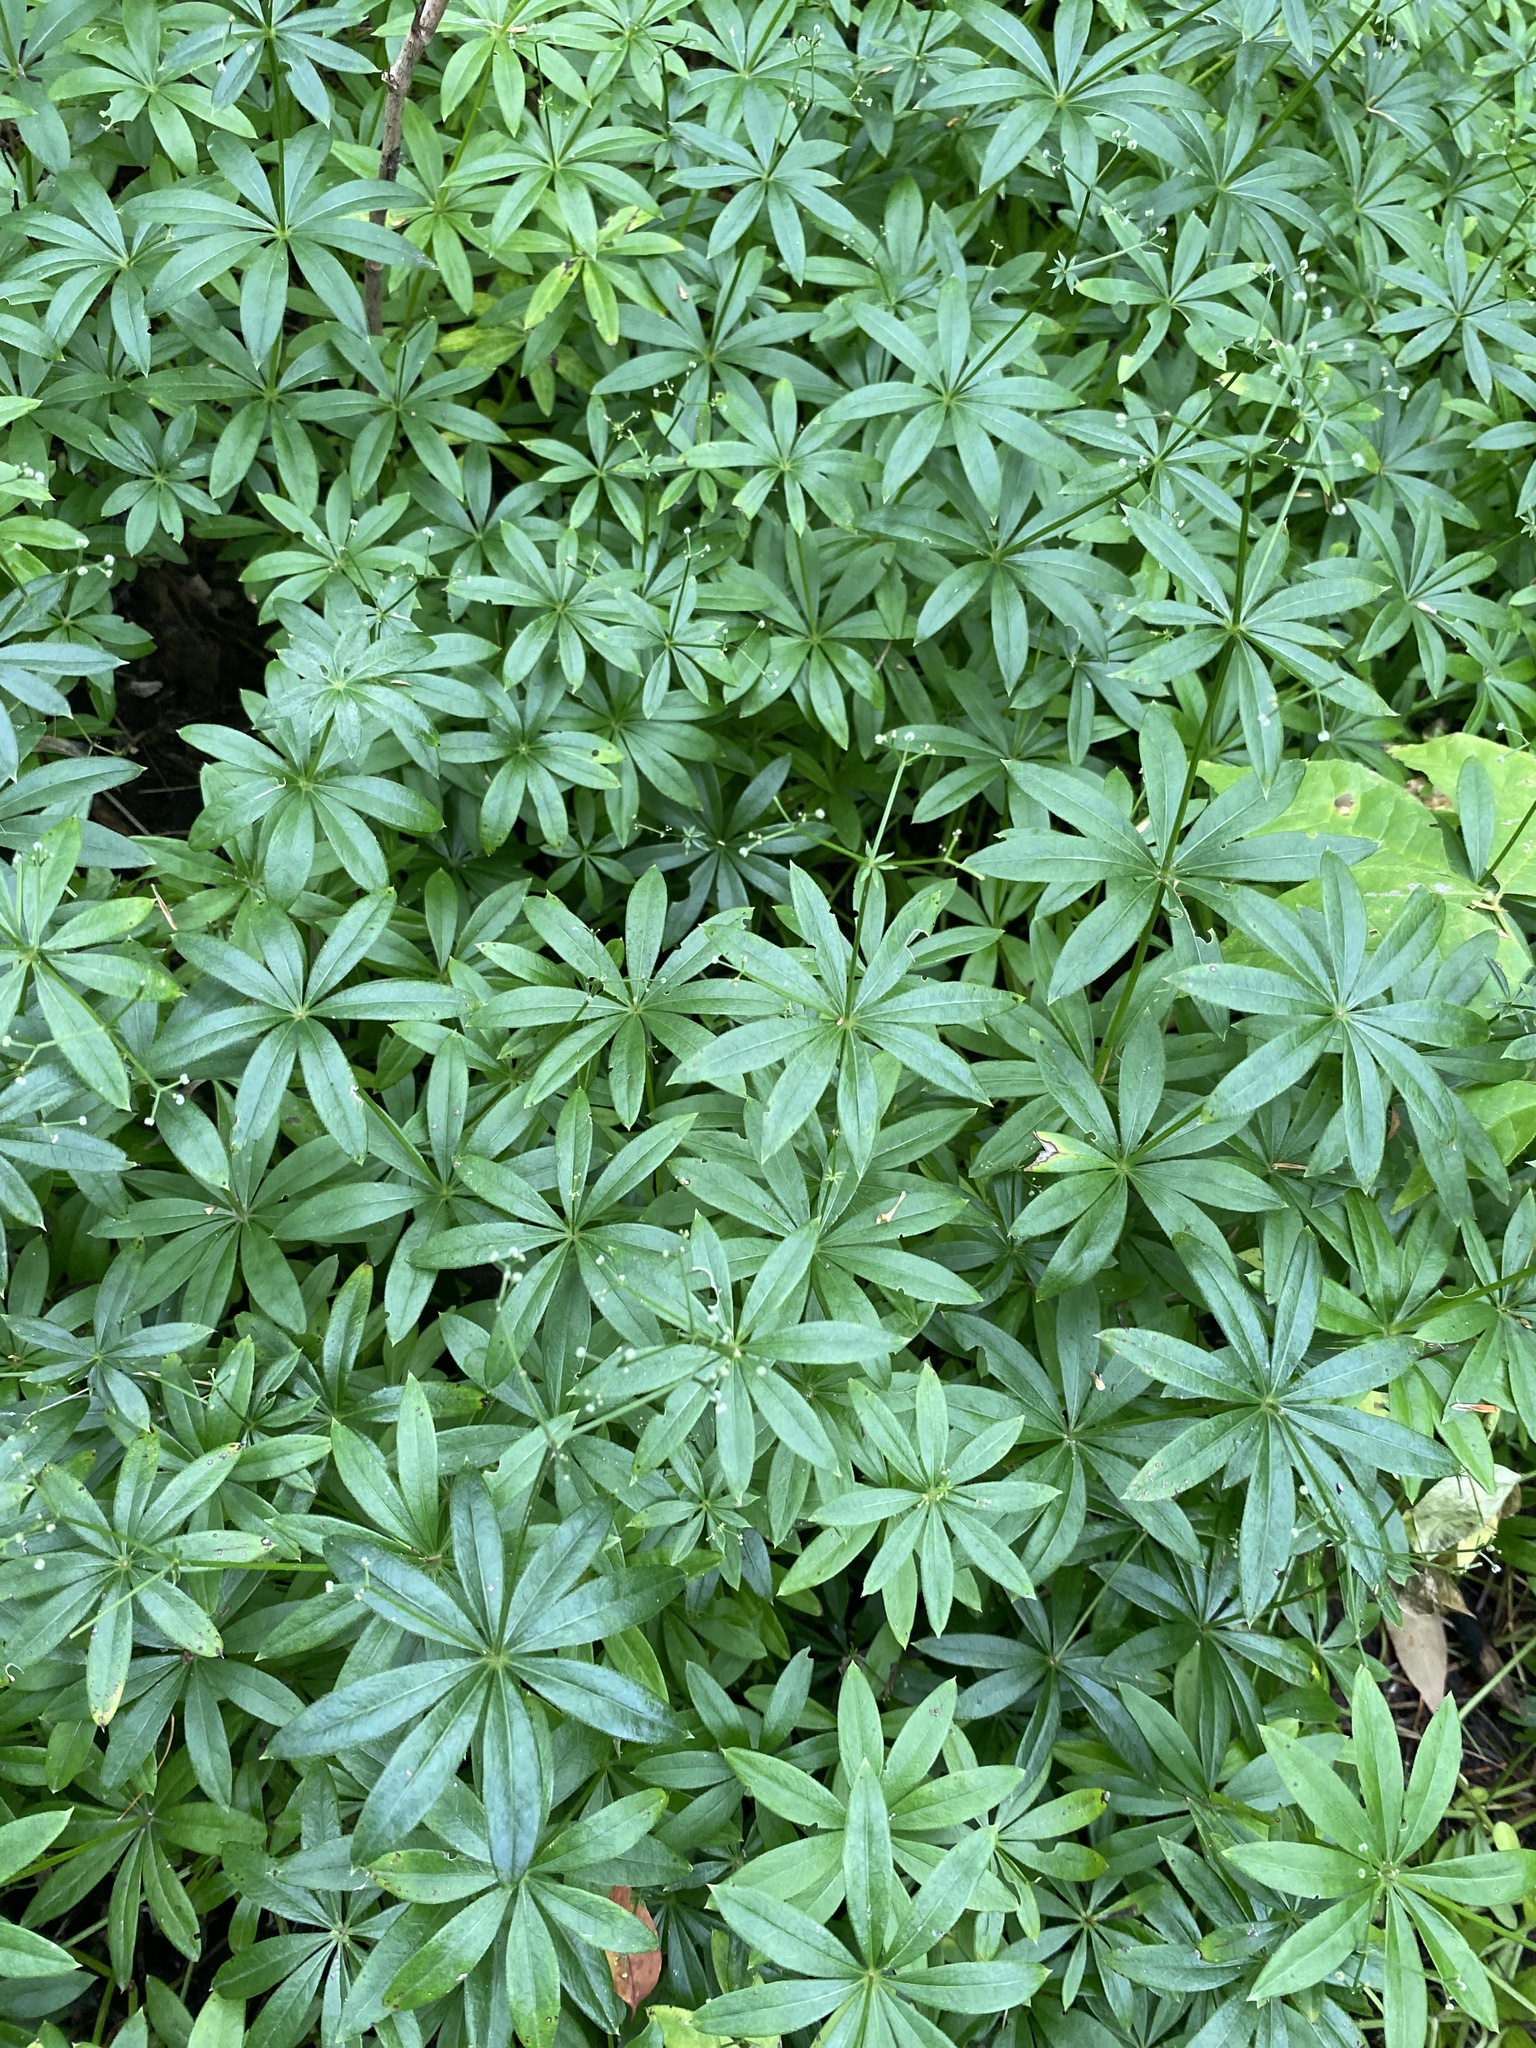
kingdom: Plantae
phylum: Tracheophyta
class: Magnoliopsida
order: Gentianales
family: Rubiaceae
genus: Galium
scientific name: Galium odoratum
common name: Sweet woodruff
